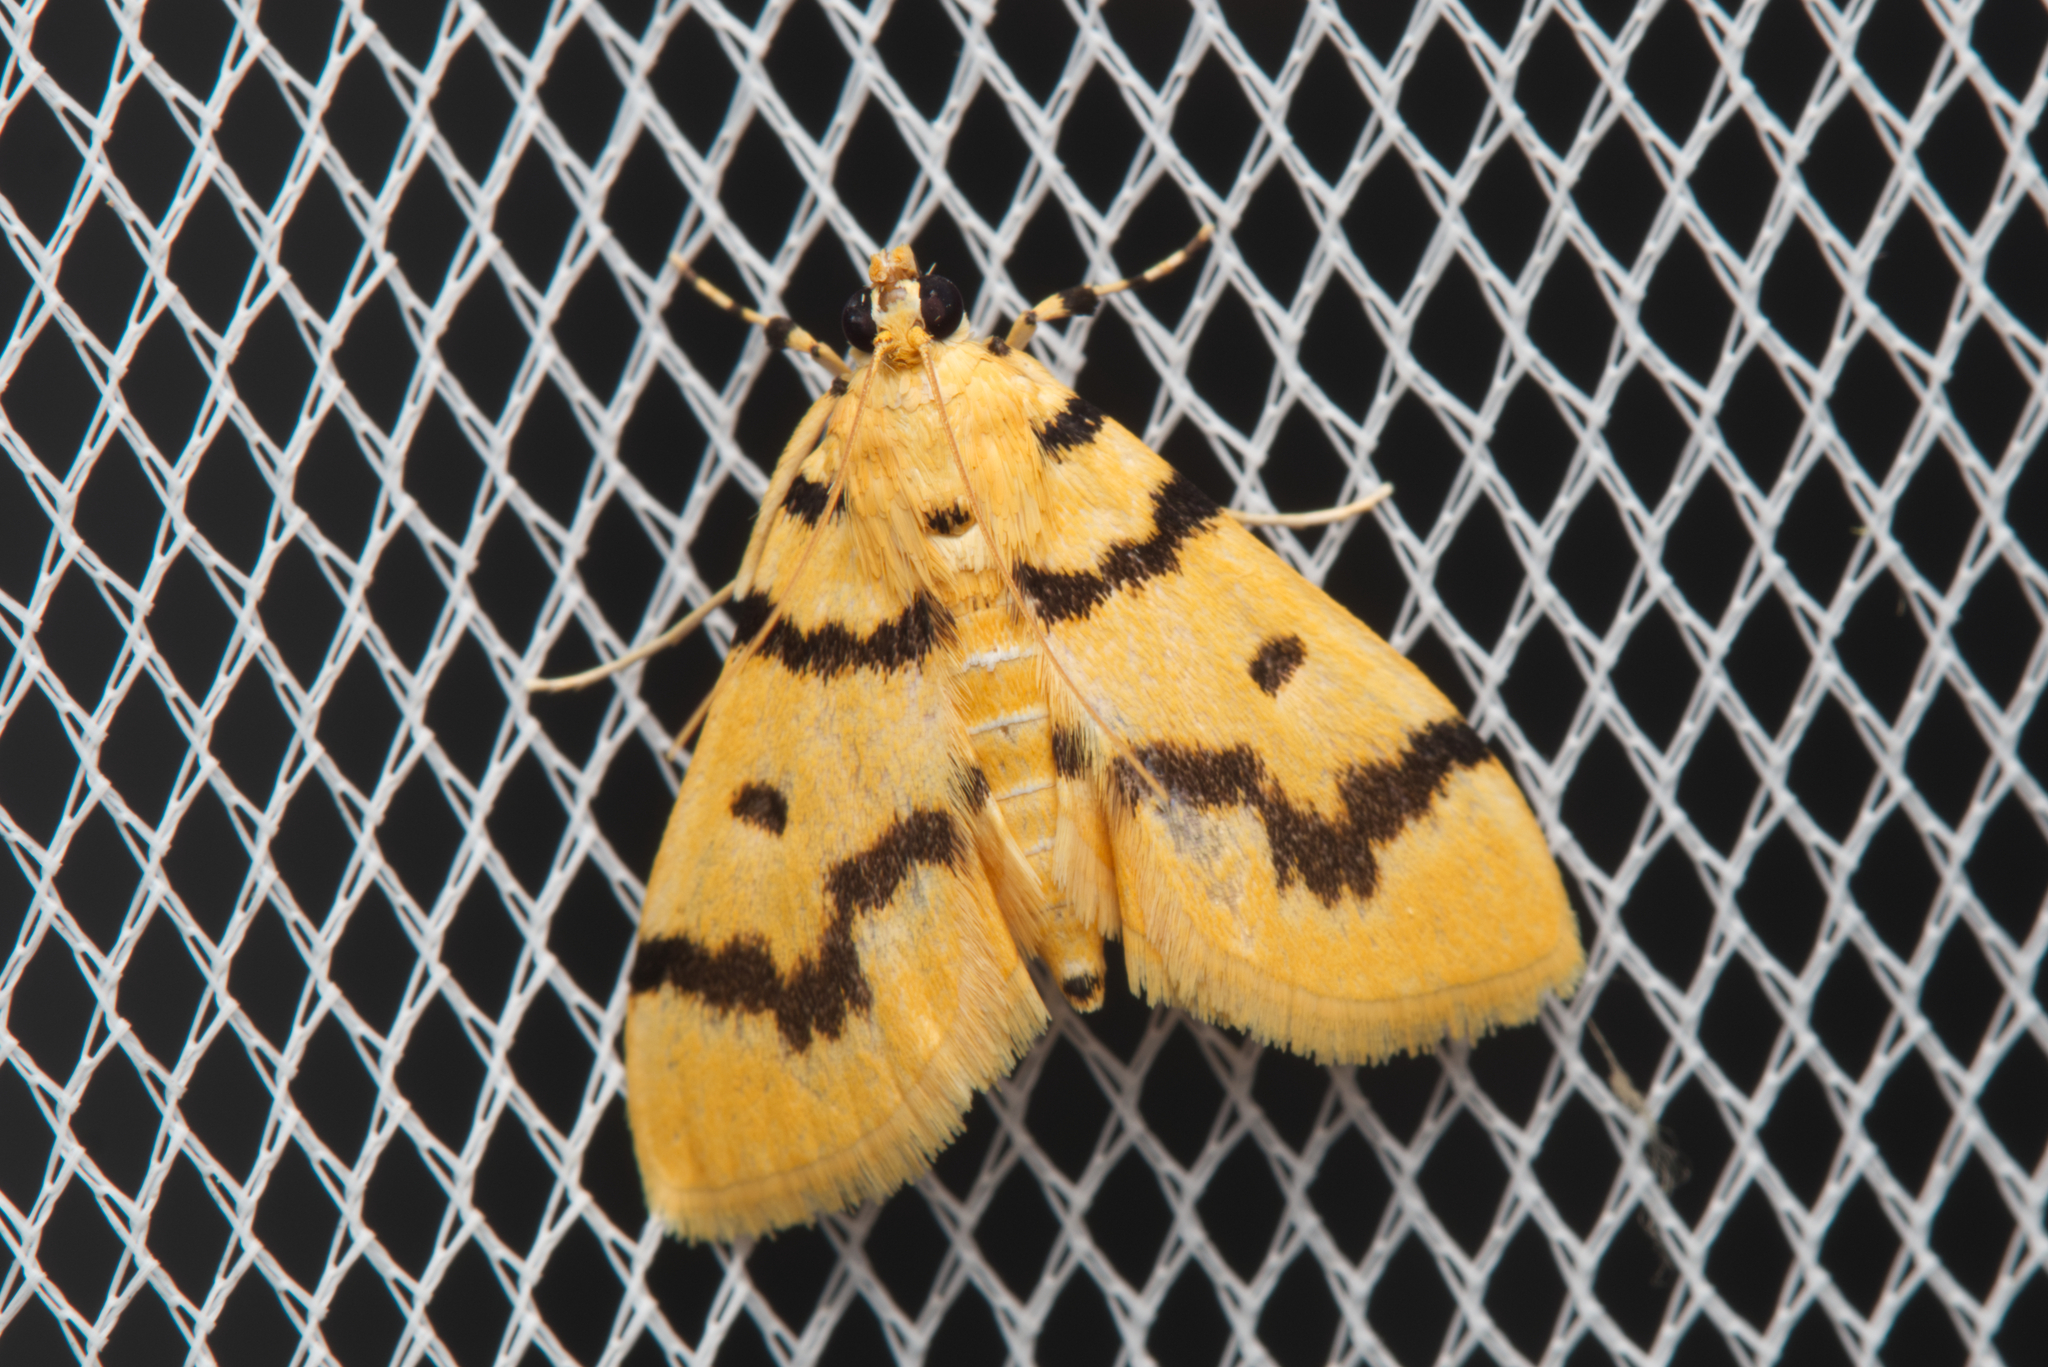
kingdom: Animalia
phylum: Arthropoda
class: Insecta
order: Lepidoptera
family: Crambidae
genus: Dichocrocis
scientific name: Dichocrocis clytusalis
